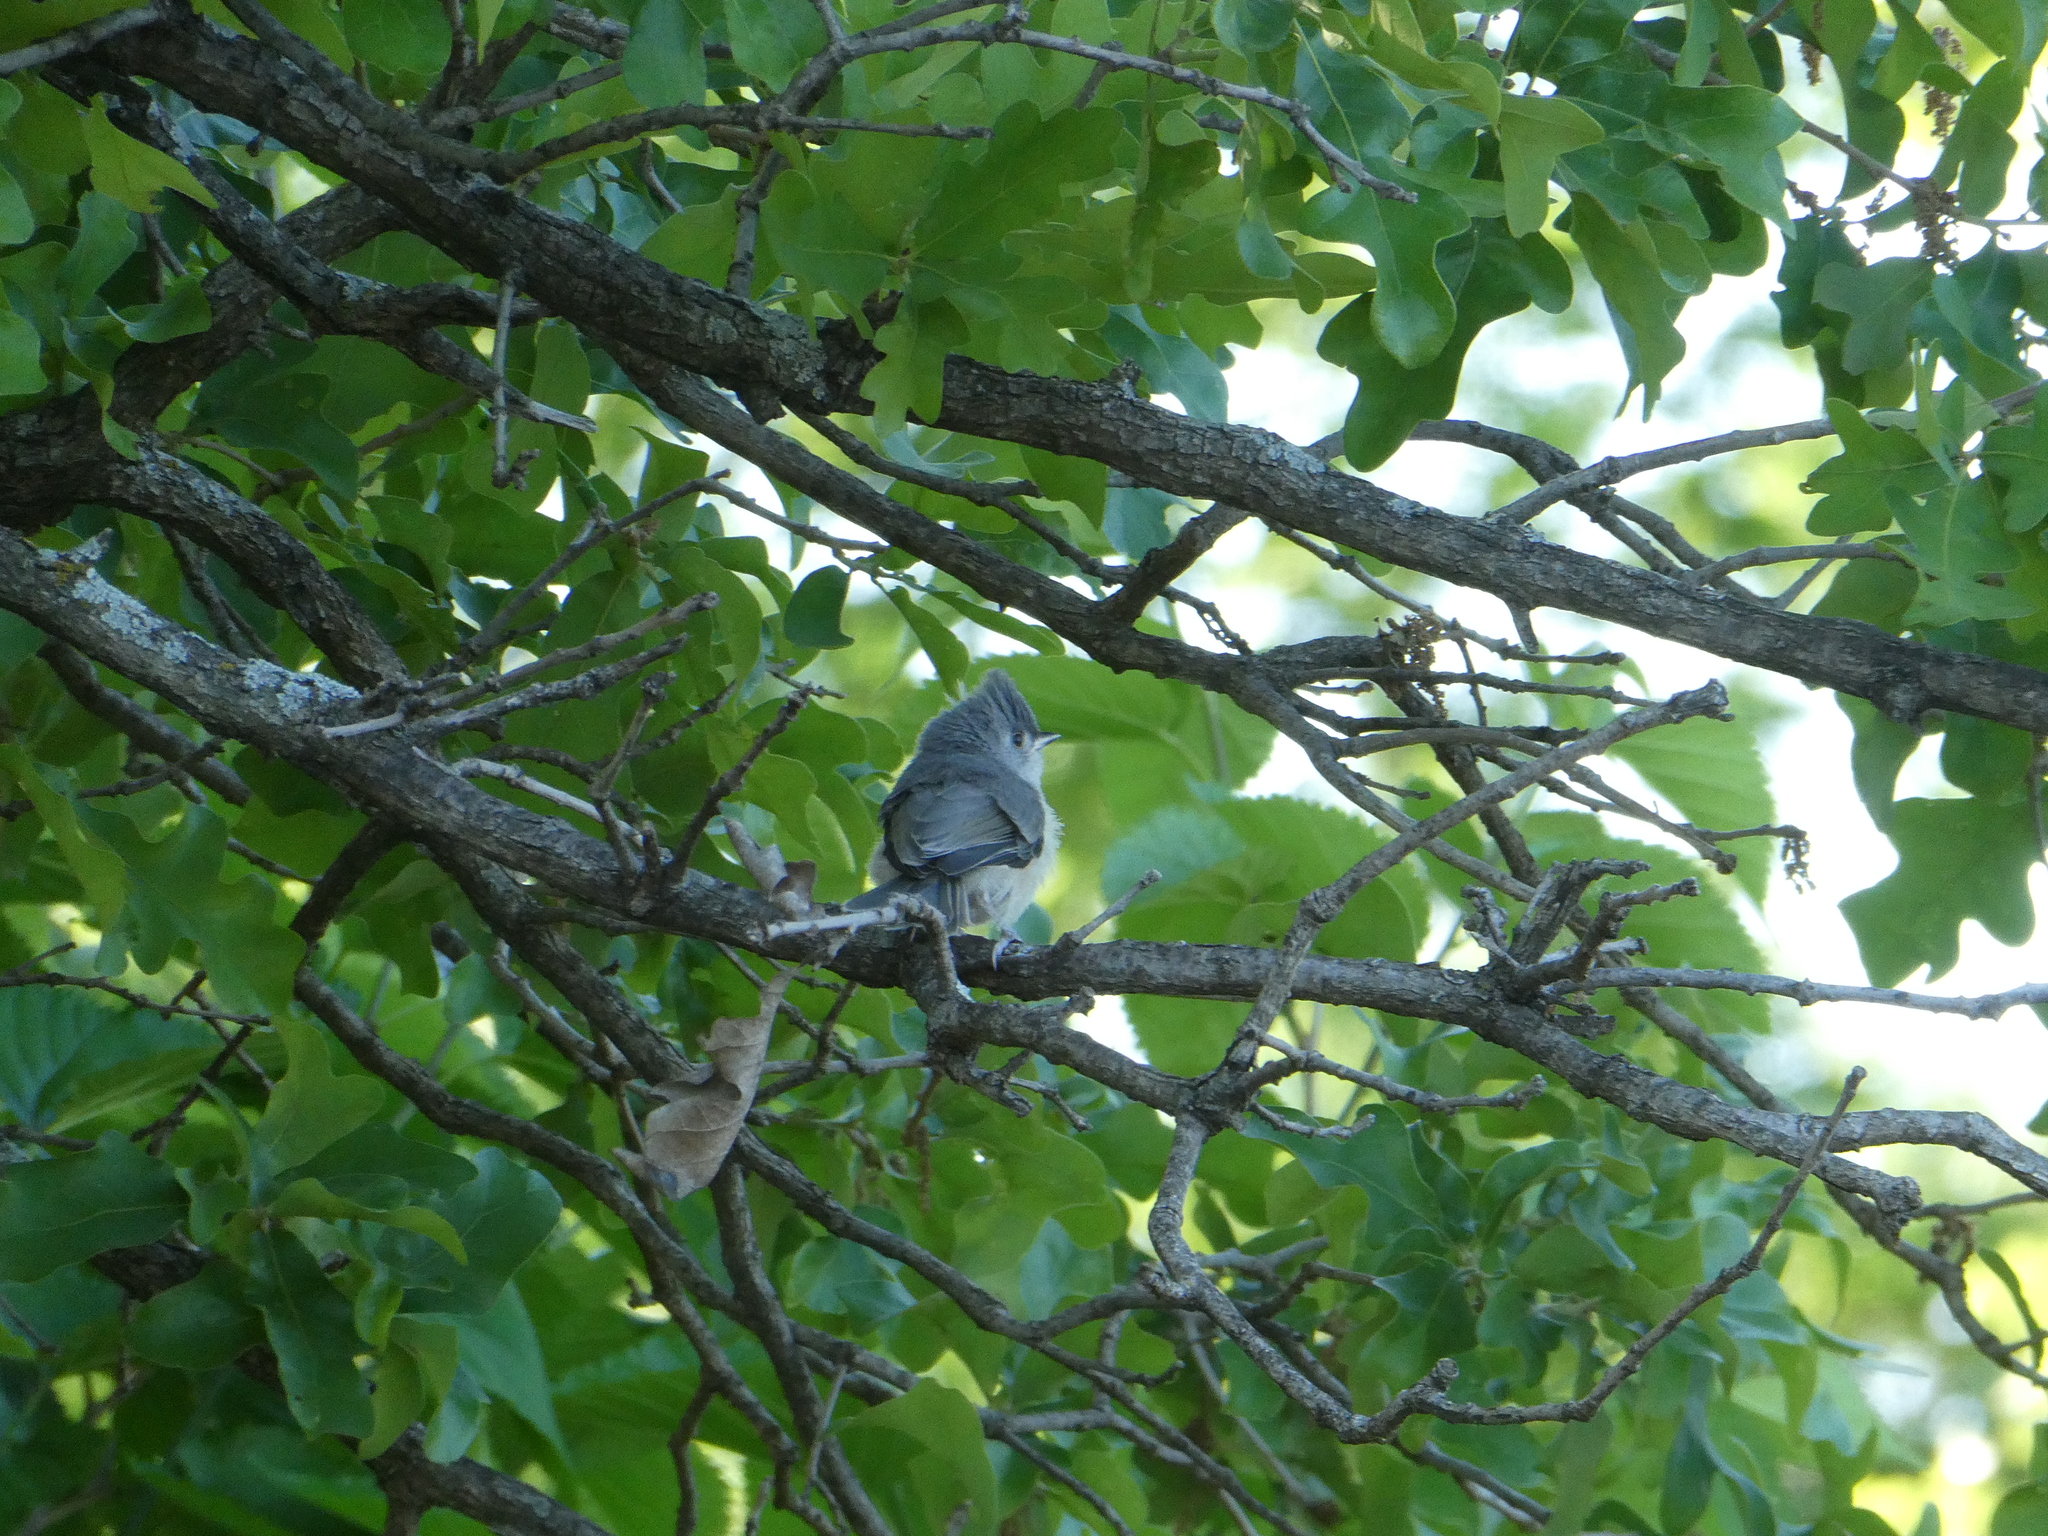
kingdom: Animalia
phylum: Chordata
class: Aves
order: Passeriformes
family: Paridae
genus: Baeolophus
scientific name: Baeolophus bicolor
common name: Tufted titmouse
